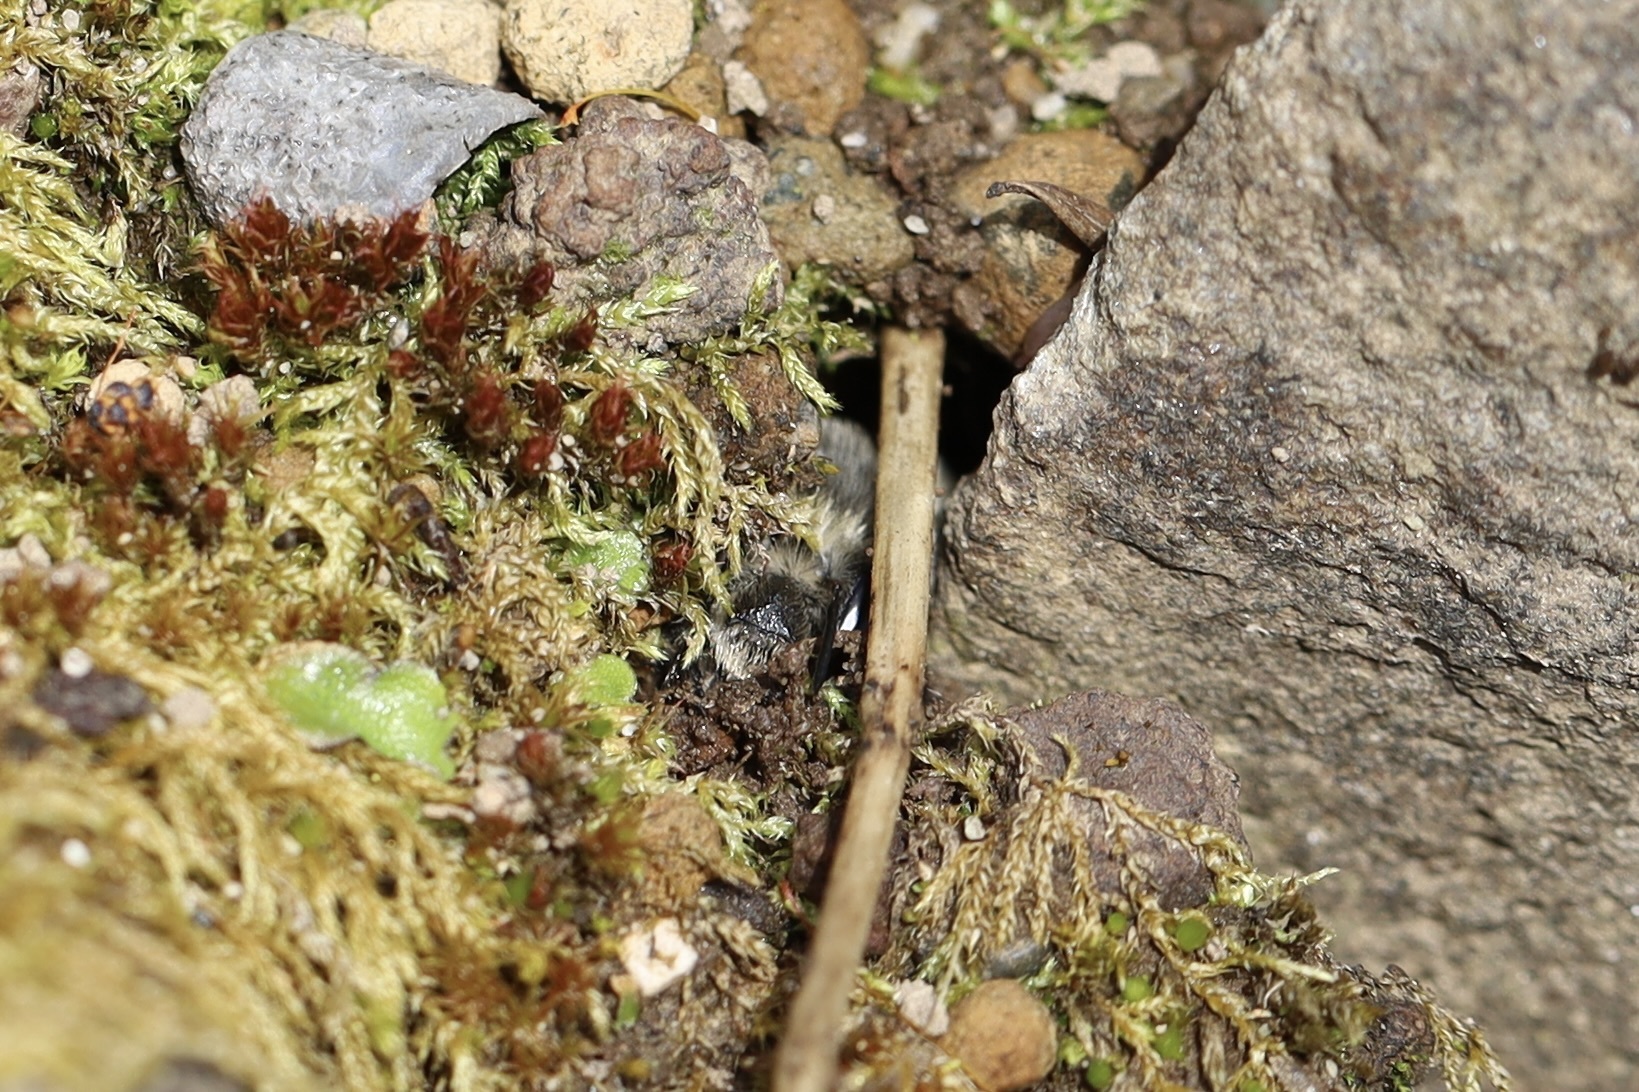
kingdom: Animalia
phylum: Arthropoda
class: Insecta
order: Hymenoptera
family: Apidae
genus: Anthophora
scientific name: Anthophora pacifica
